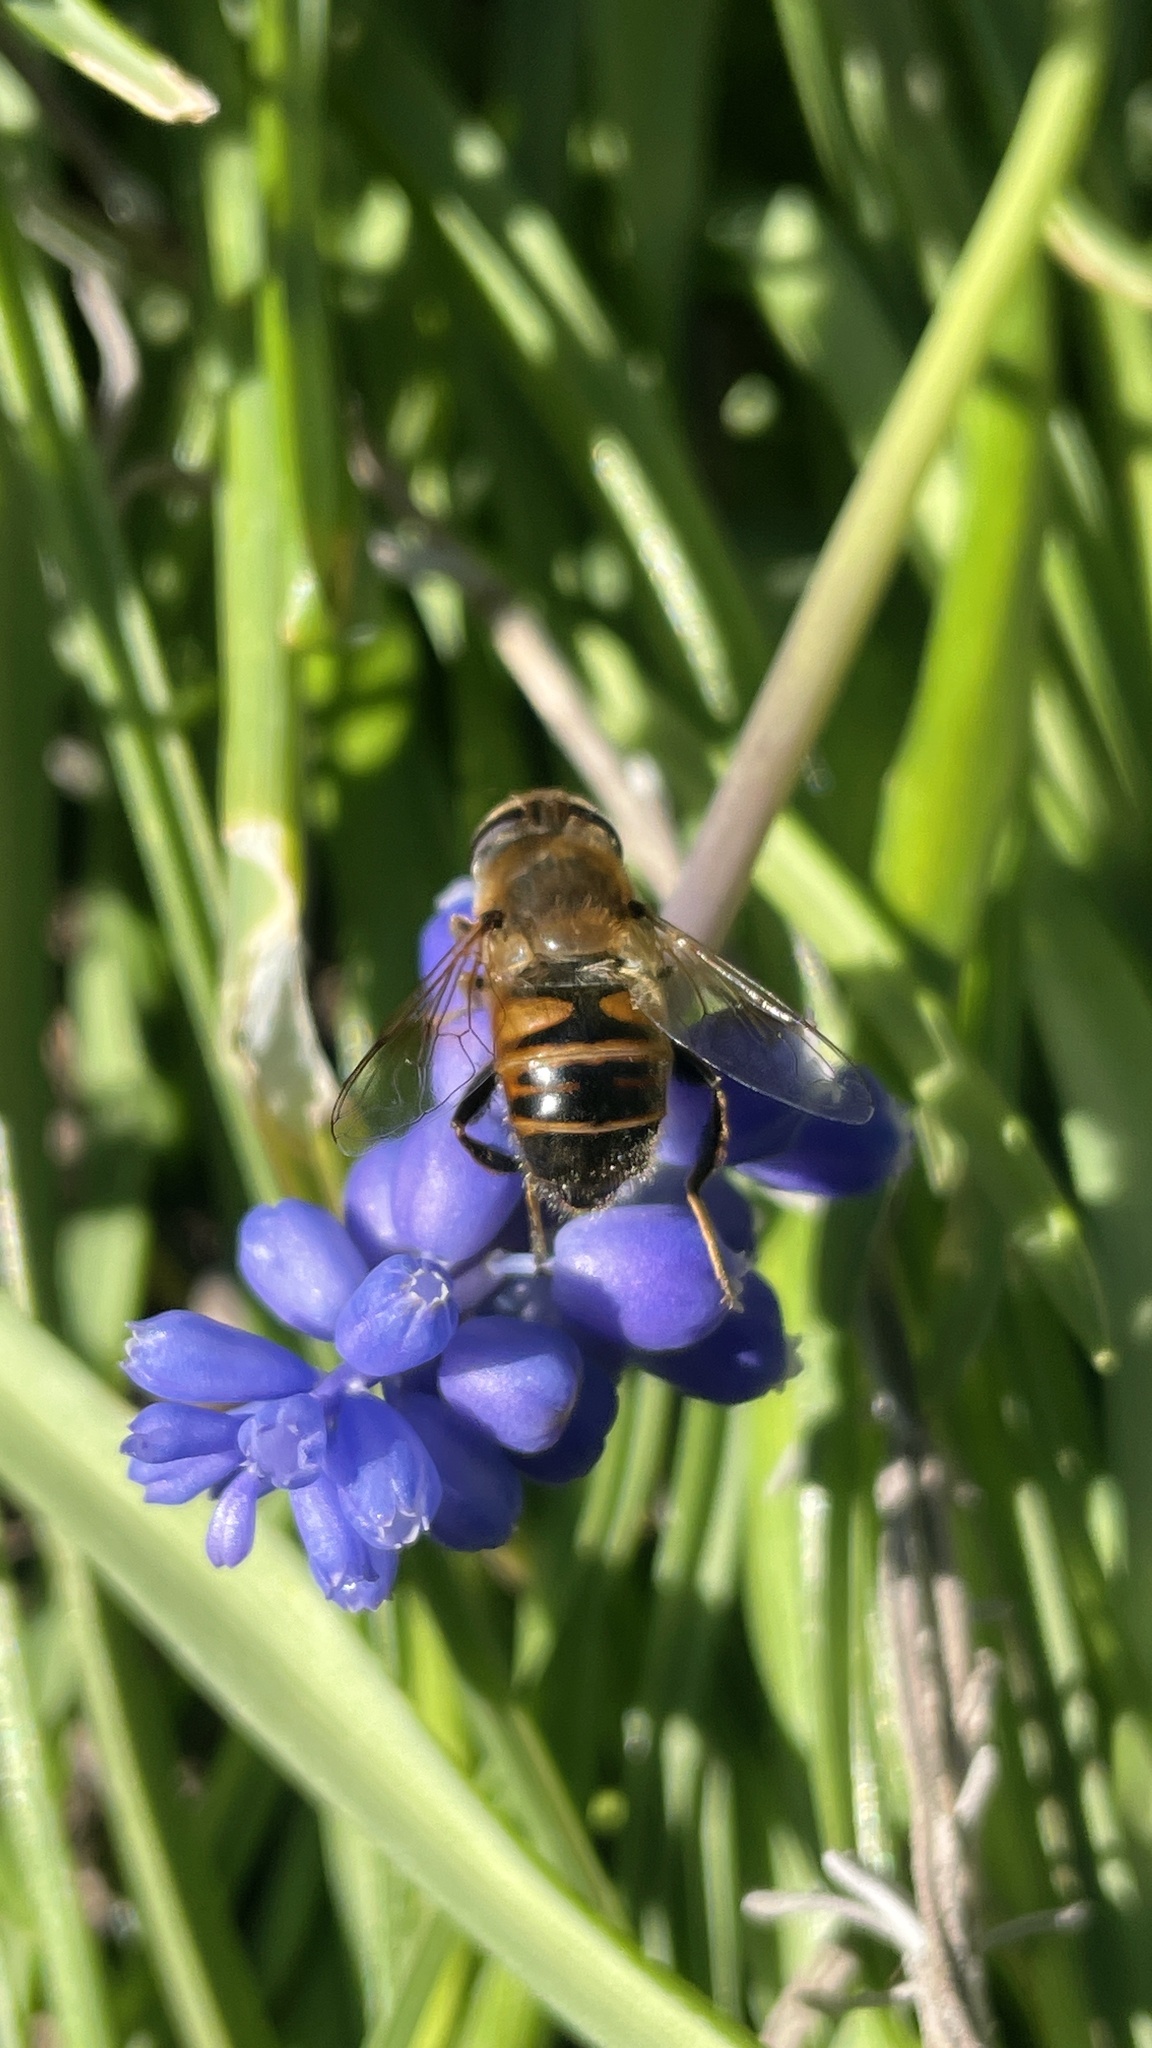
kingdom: Animalia
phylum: Arthropoda
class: Insecta
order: Diptera
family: Syrphidae
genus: Eristalis
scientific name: Eristalis tenax
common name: Drone fly
